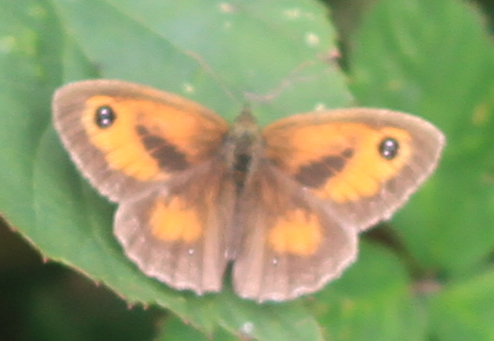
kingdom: Animalia
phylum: Arthropoda
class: Insecta
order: Lepidoptera
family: Nymphalidae
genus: Pyronia
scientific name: Pyronia tithonus
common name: Gatekeeper
